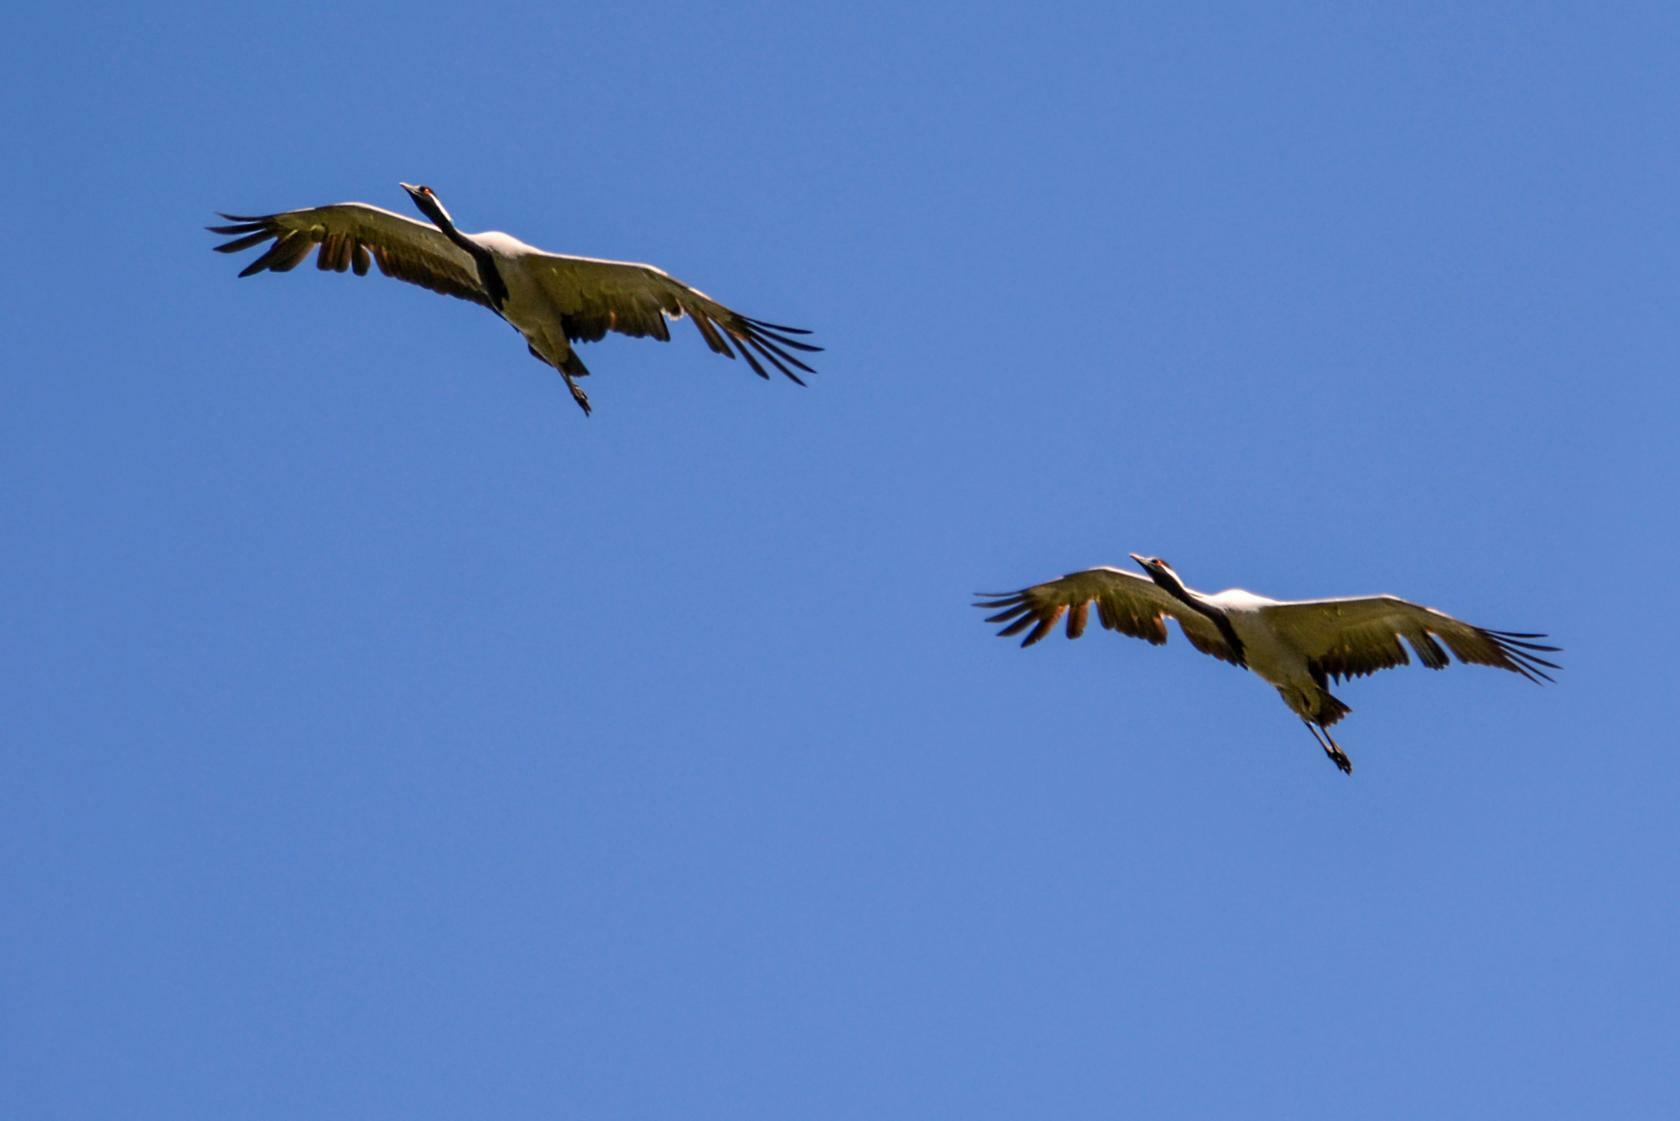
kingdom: Animalia
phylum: Chordata
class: Aves
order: Gruiformes
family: Gruidae
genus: Anthropoides
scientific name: Anthropoides virgo
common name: Demoiselle crane
